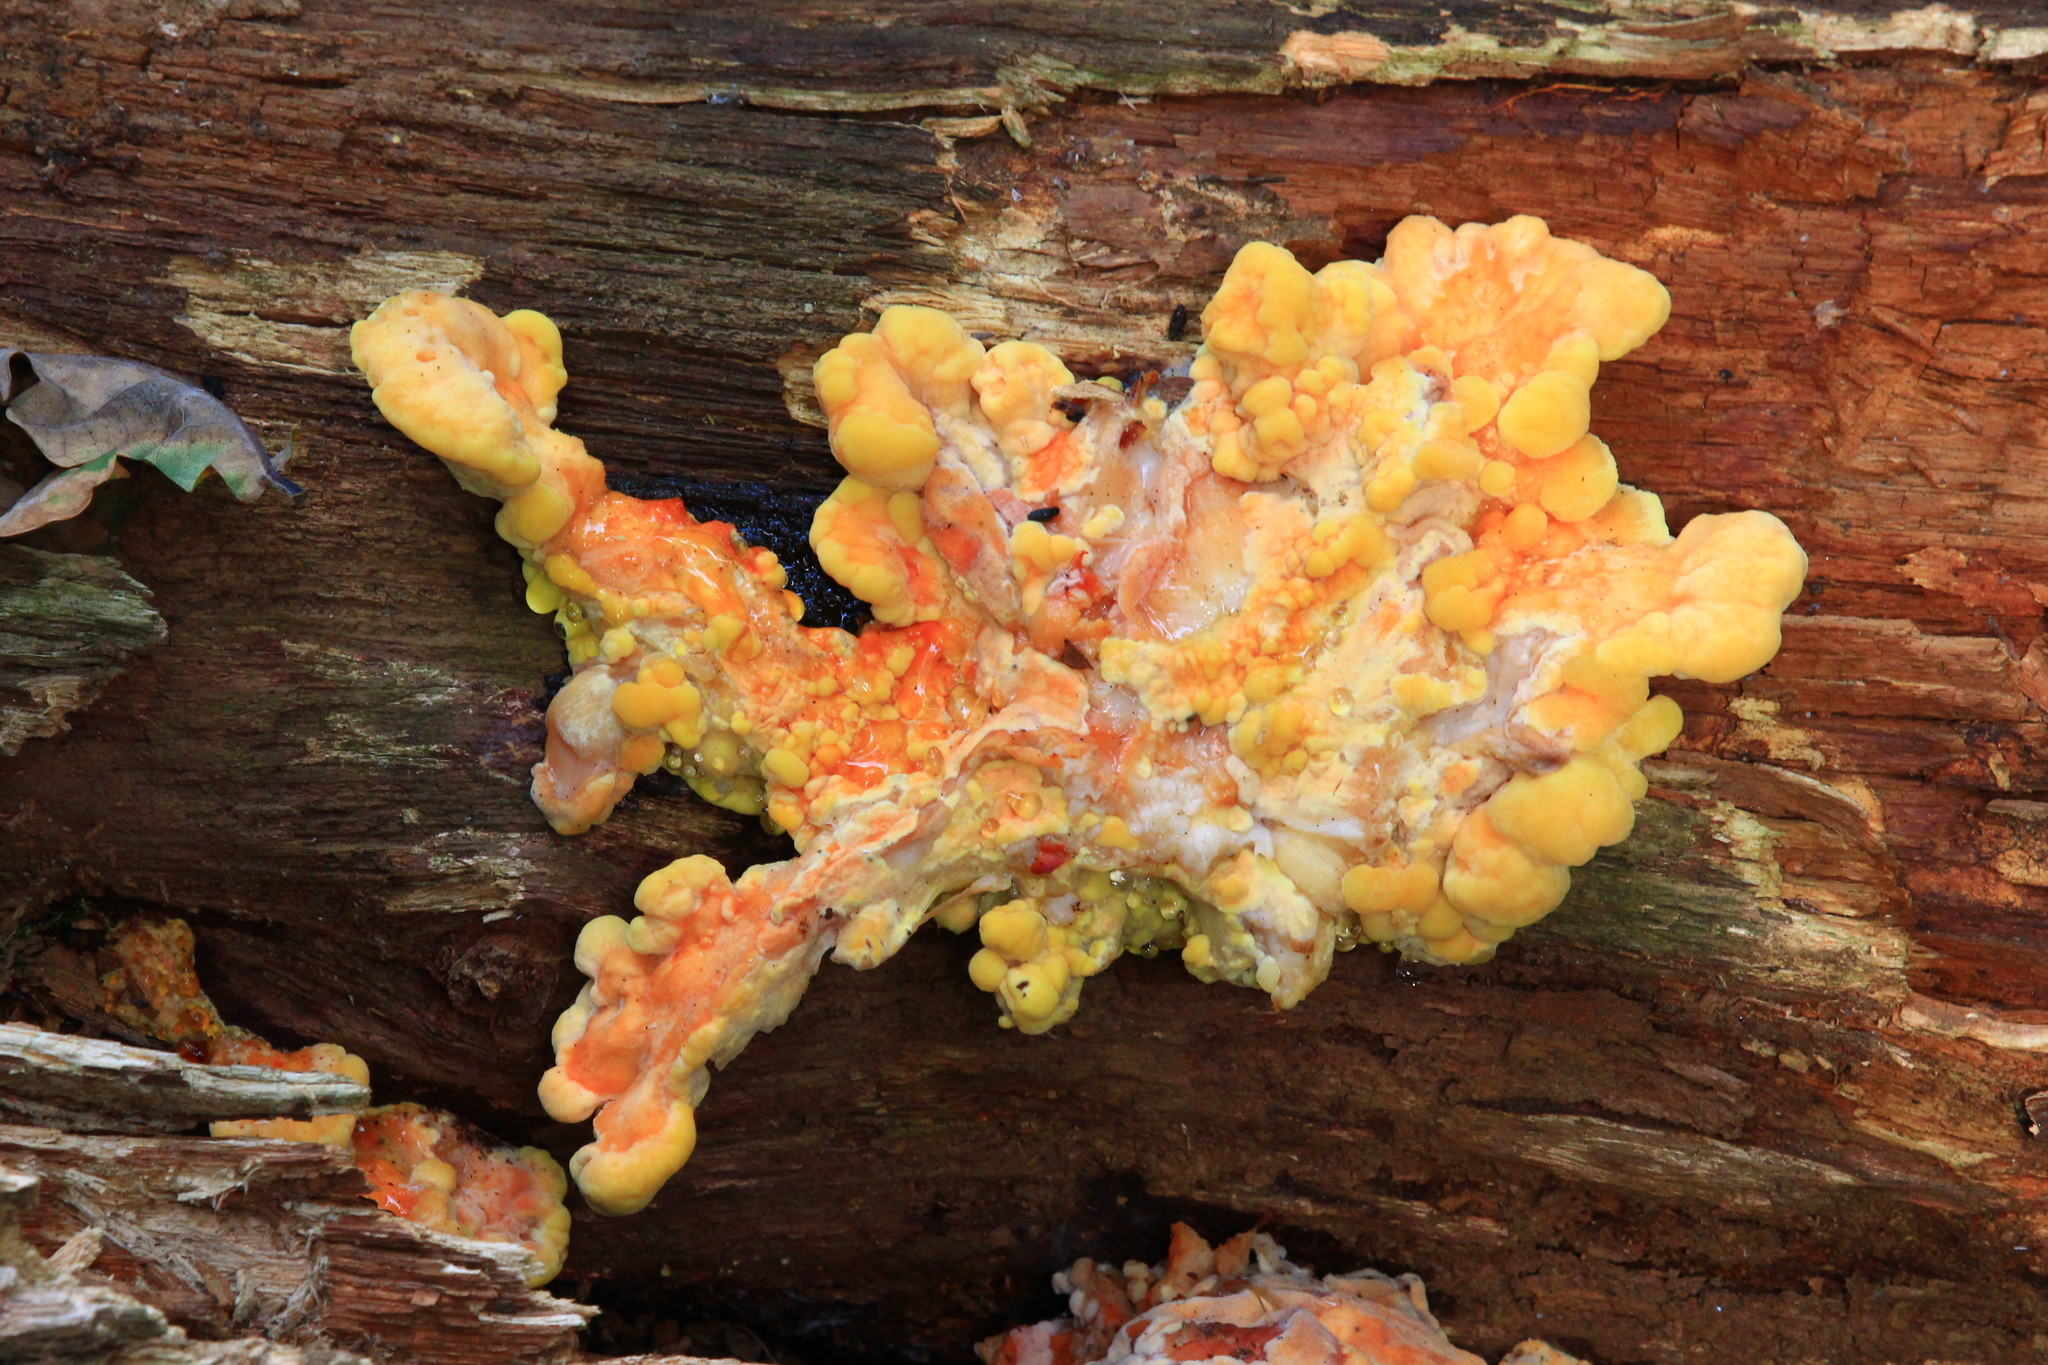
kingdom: Fungi
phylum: Basidiomycota
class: Agaricomycetes
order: Polyporales
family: Laetiporaceae
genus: Laetiporus
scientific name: Laetiporus sulphureus
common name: Chicken of the woods
